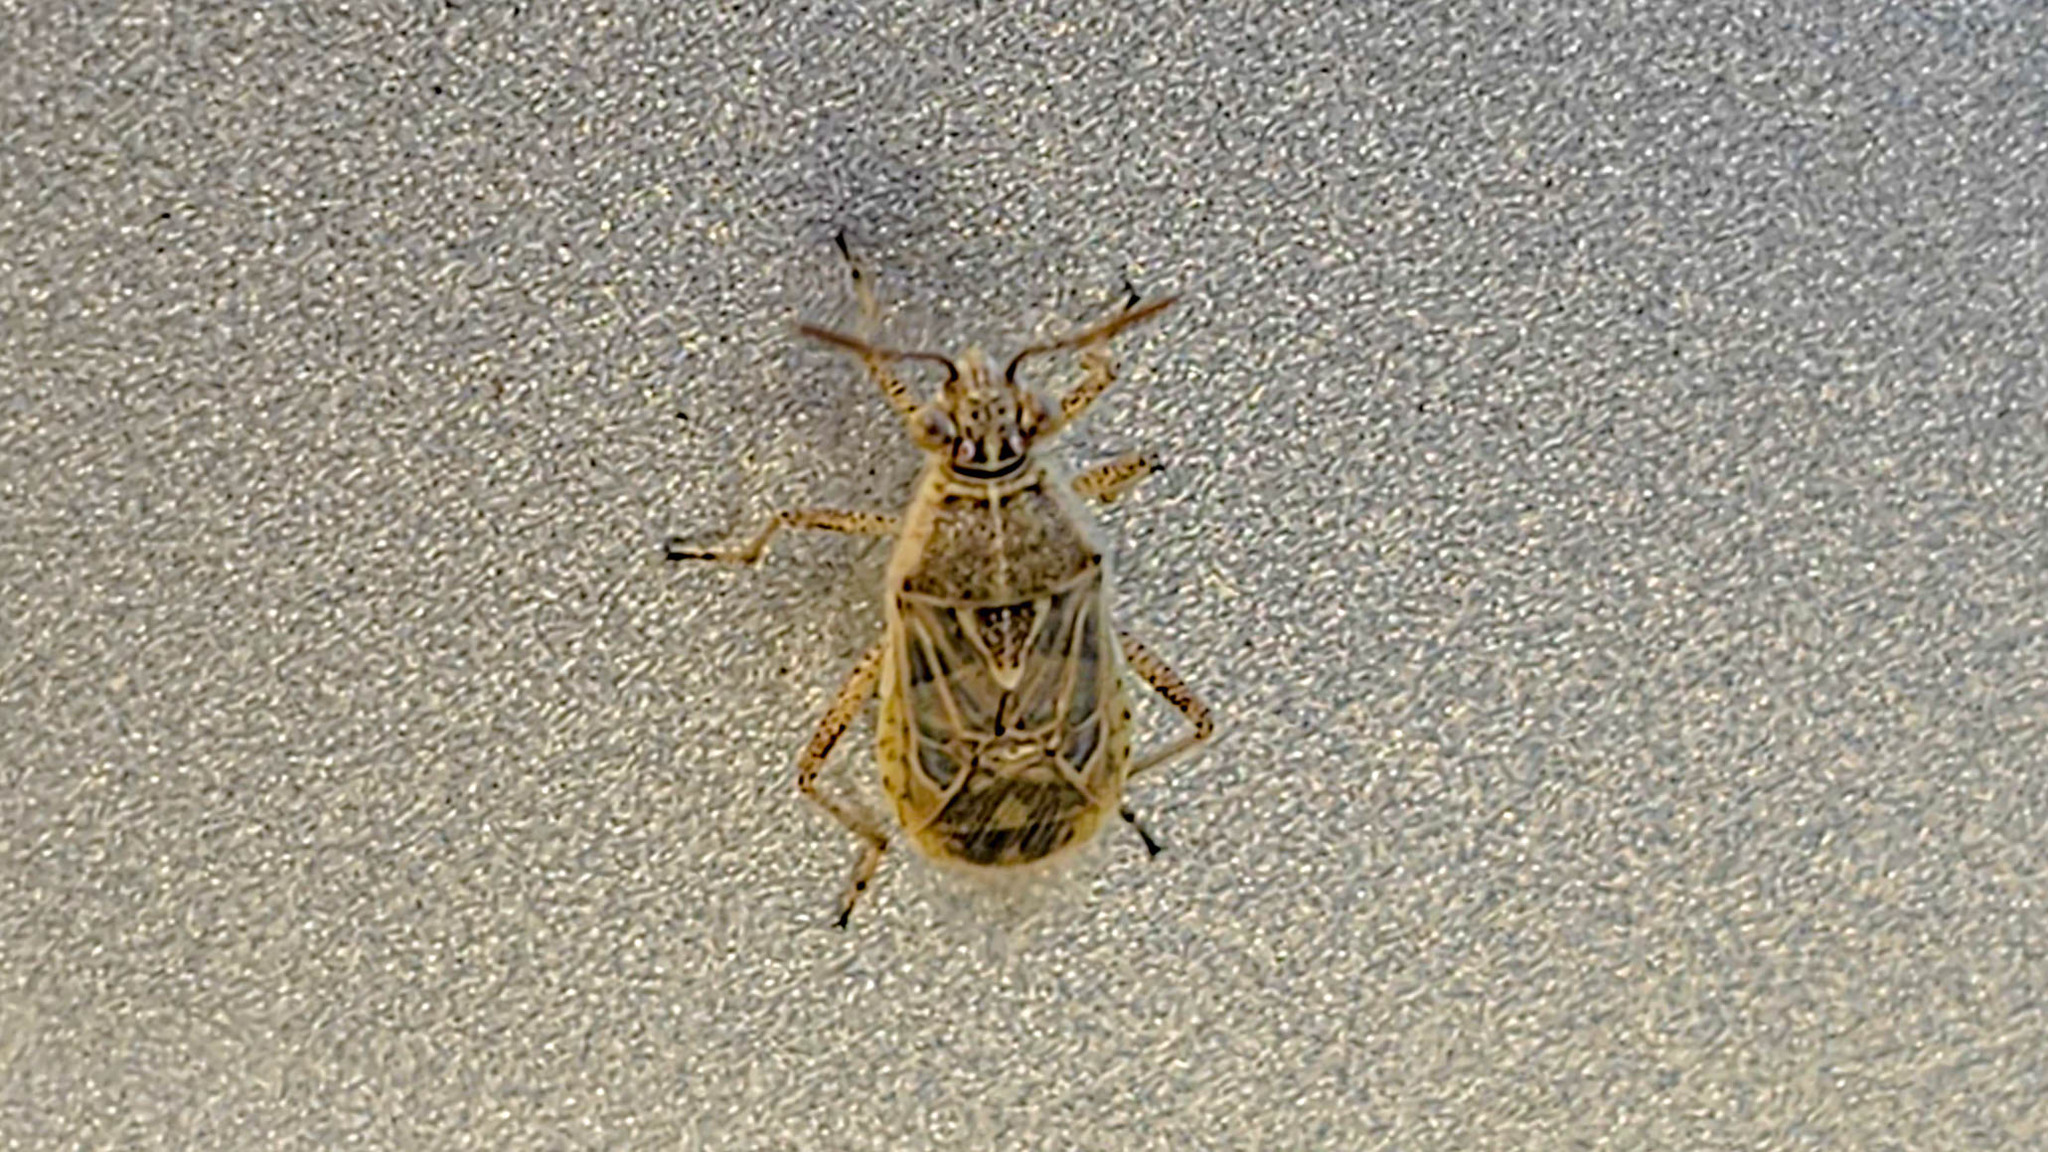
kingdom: Animalia
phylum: Arthropoda
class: Insecta
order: Hemiptera
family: Rhopalidae
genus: Liorhyssus
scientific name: Liorhyssus hyalinus
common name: Scentless plant bug
